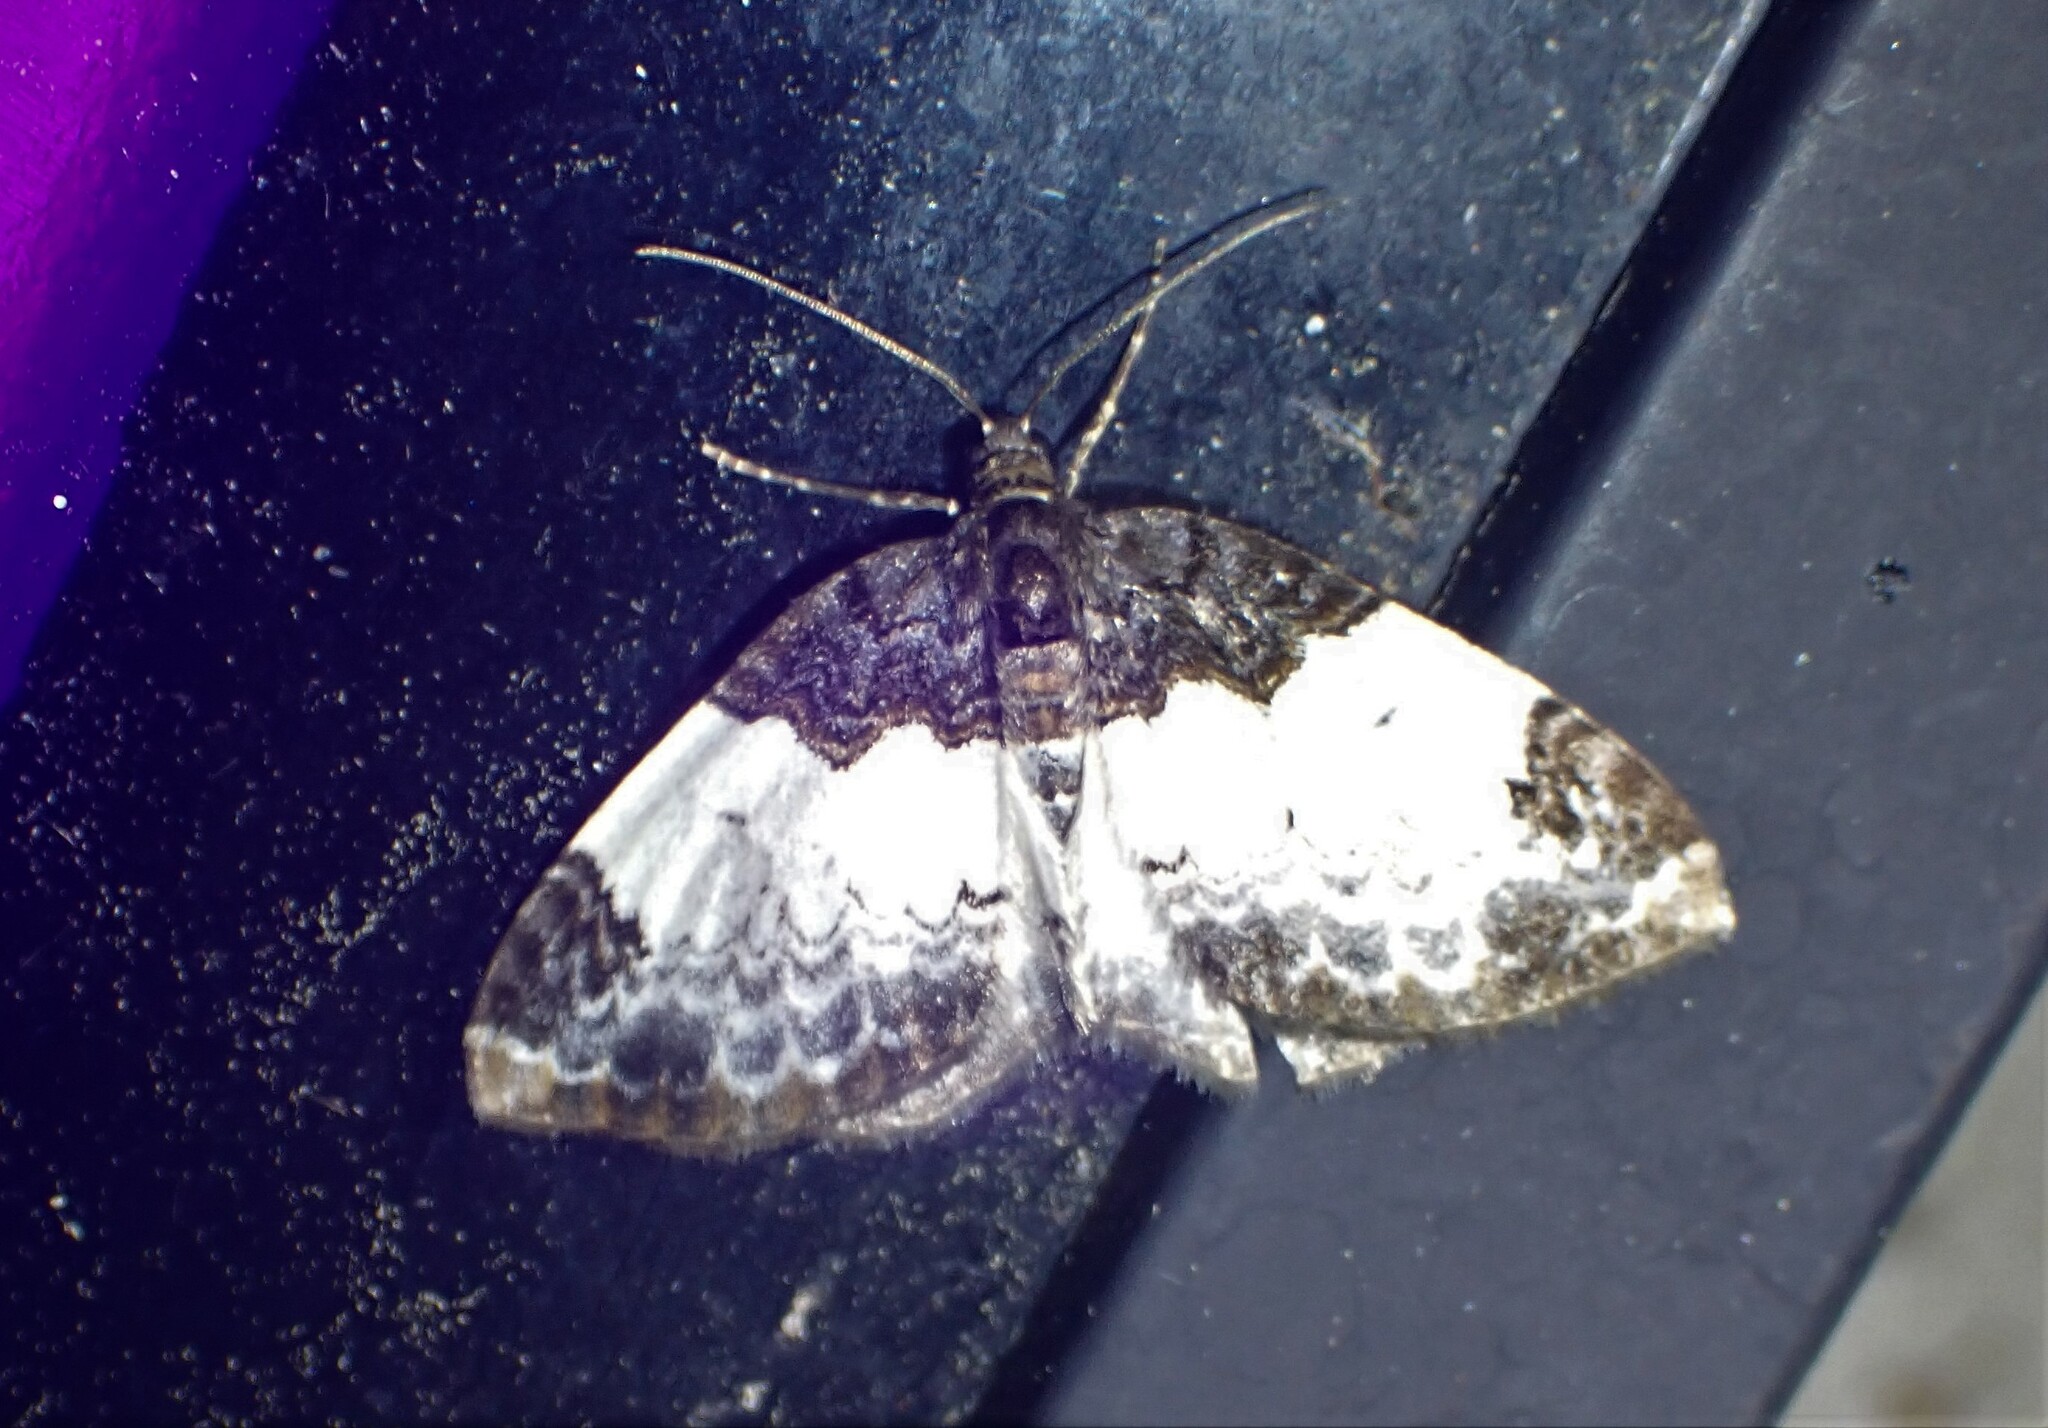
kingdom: Animalia
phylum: Arthropoda
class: Insecta
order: Lepidoptera
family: Geometridae
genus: Mesoleuca
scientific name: Mesoleuca ruficillata
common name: White-ribboned carpet moth
